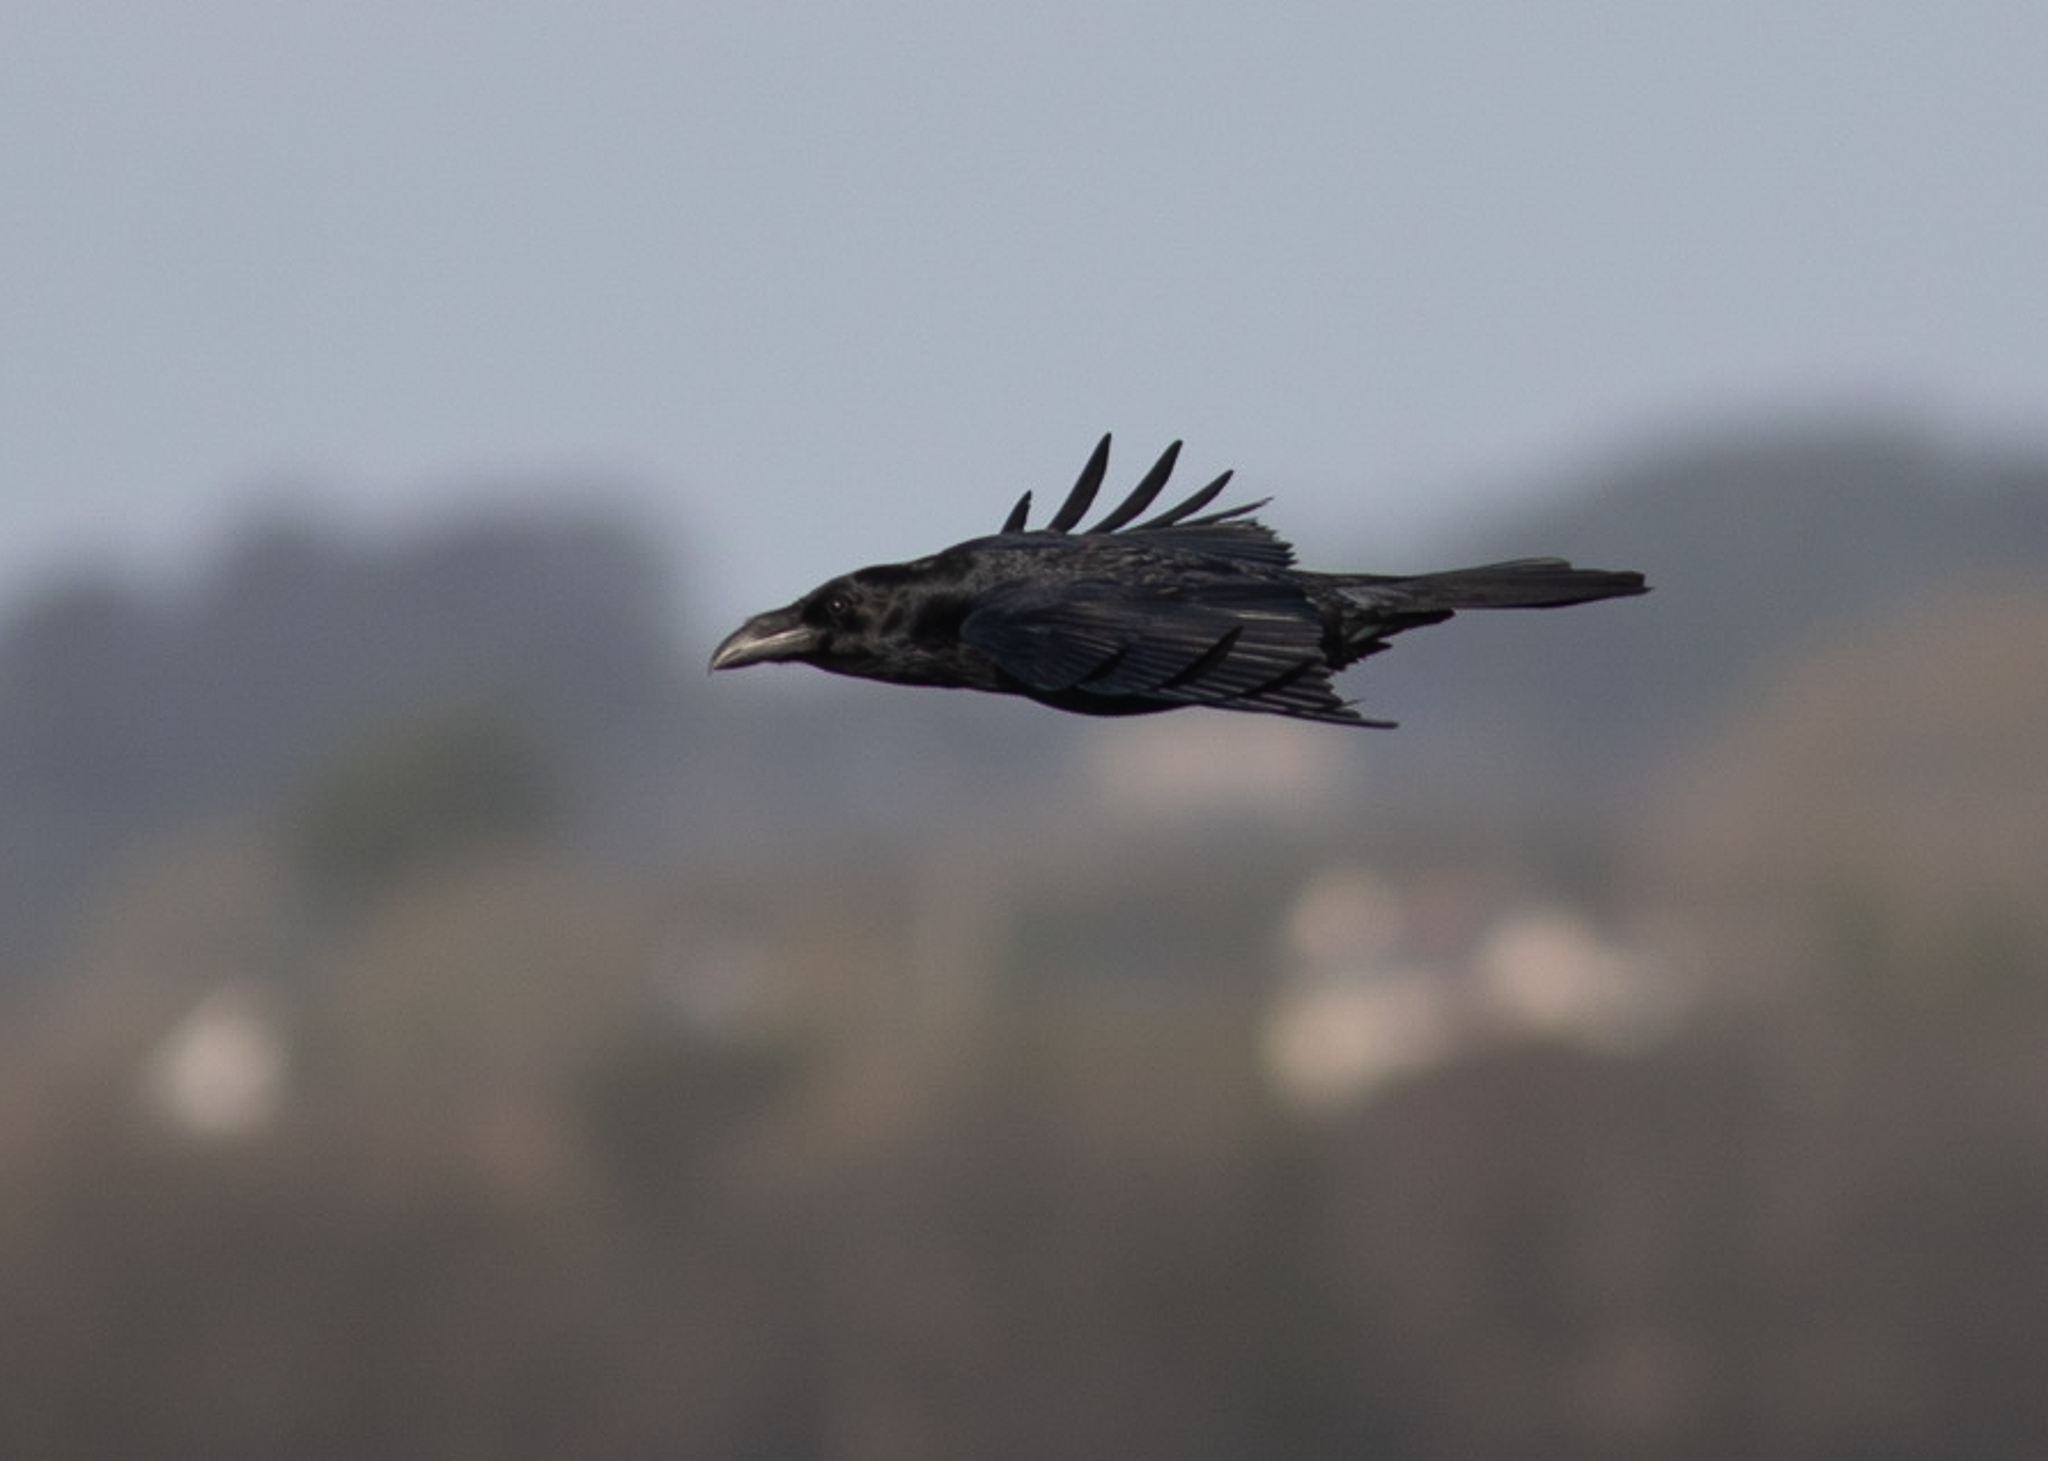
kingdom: Animalia
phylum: Chordata
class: Aves
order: Passeriformes
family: Corvidae
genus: Corvus
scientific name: Corvus corax
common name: Common raven
